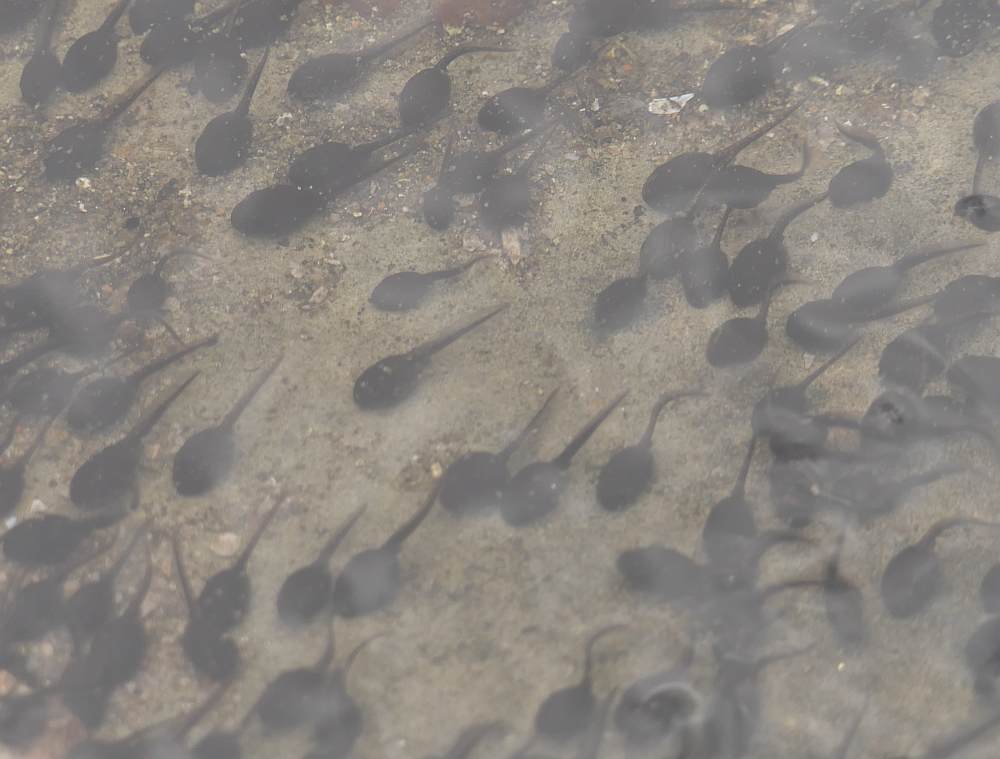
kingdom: Animalia
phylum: Chordata
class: Amphibia
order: Anura
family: Bufonidae
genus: Anaxyrus
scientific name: Anaxyrus americanus
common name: American toad
